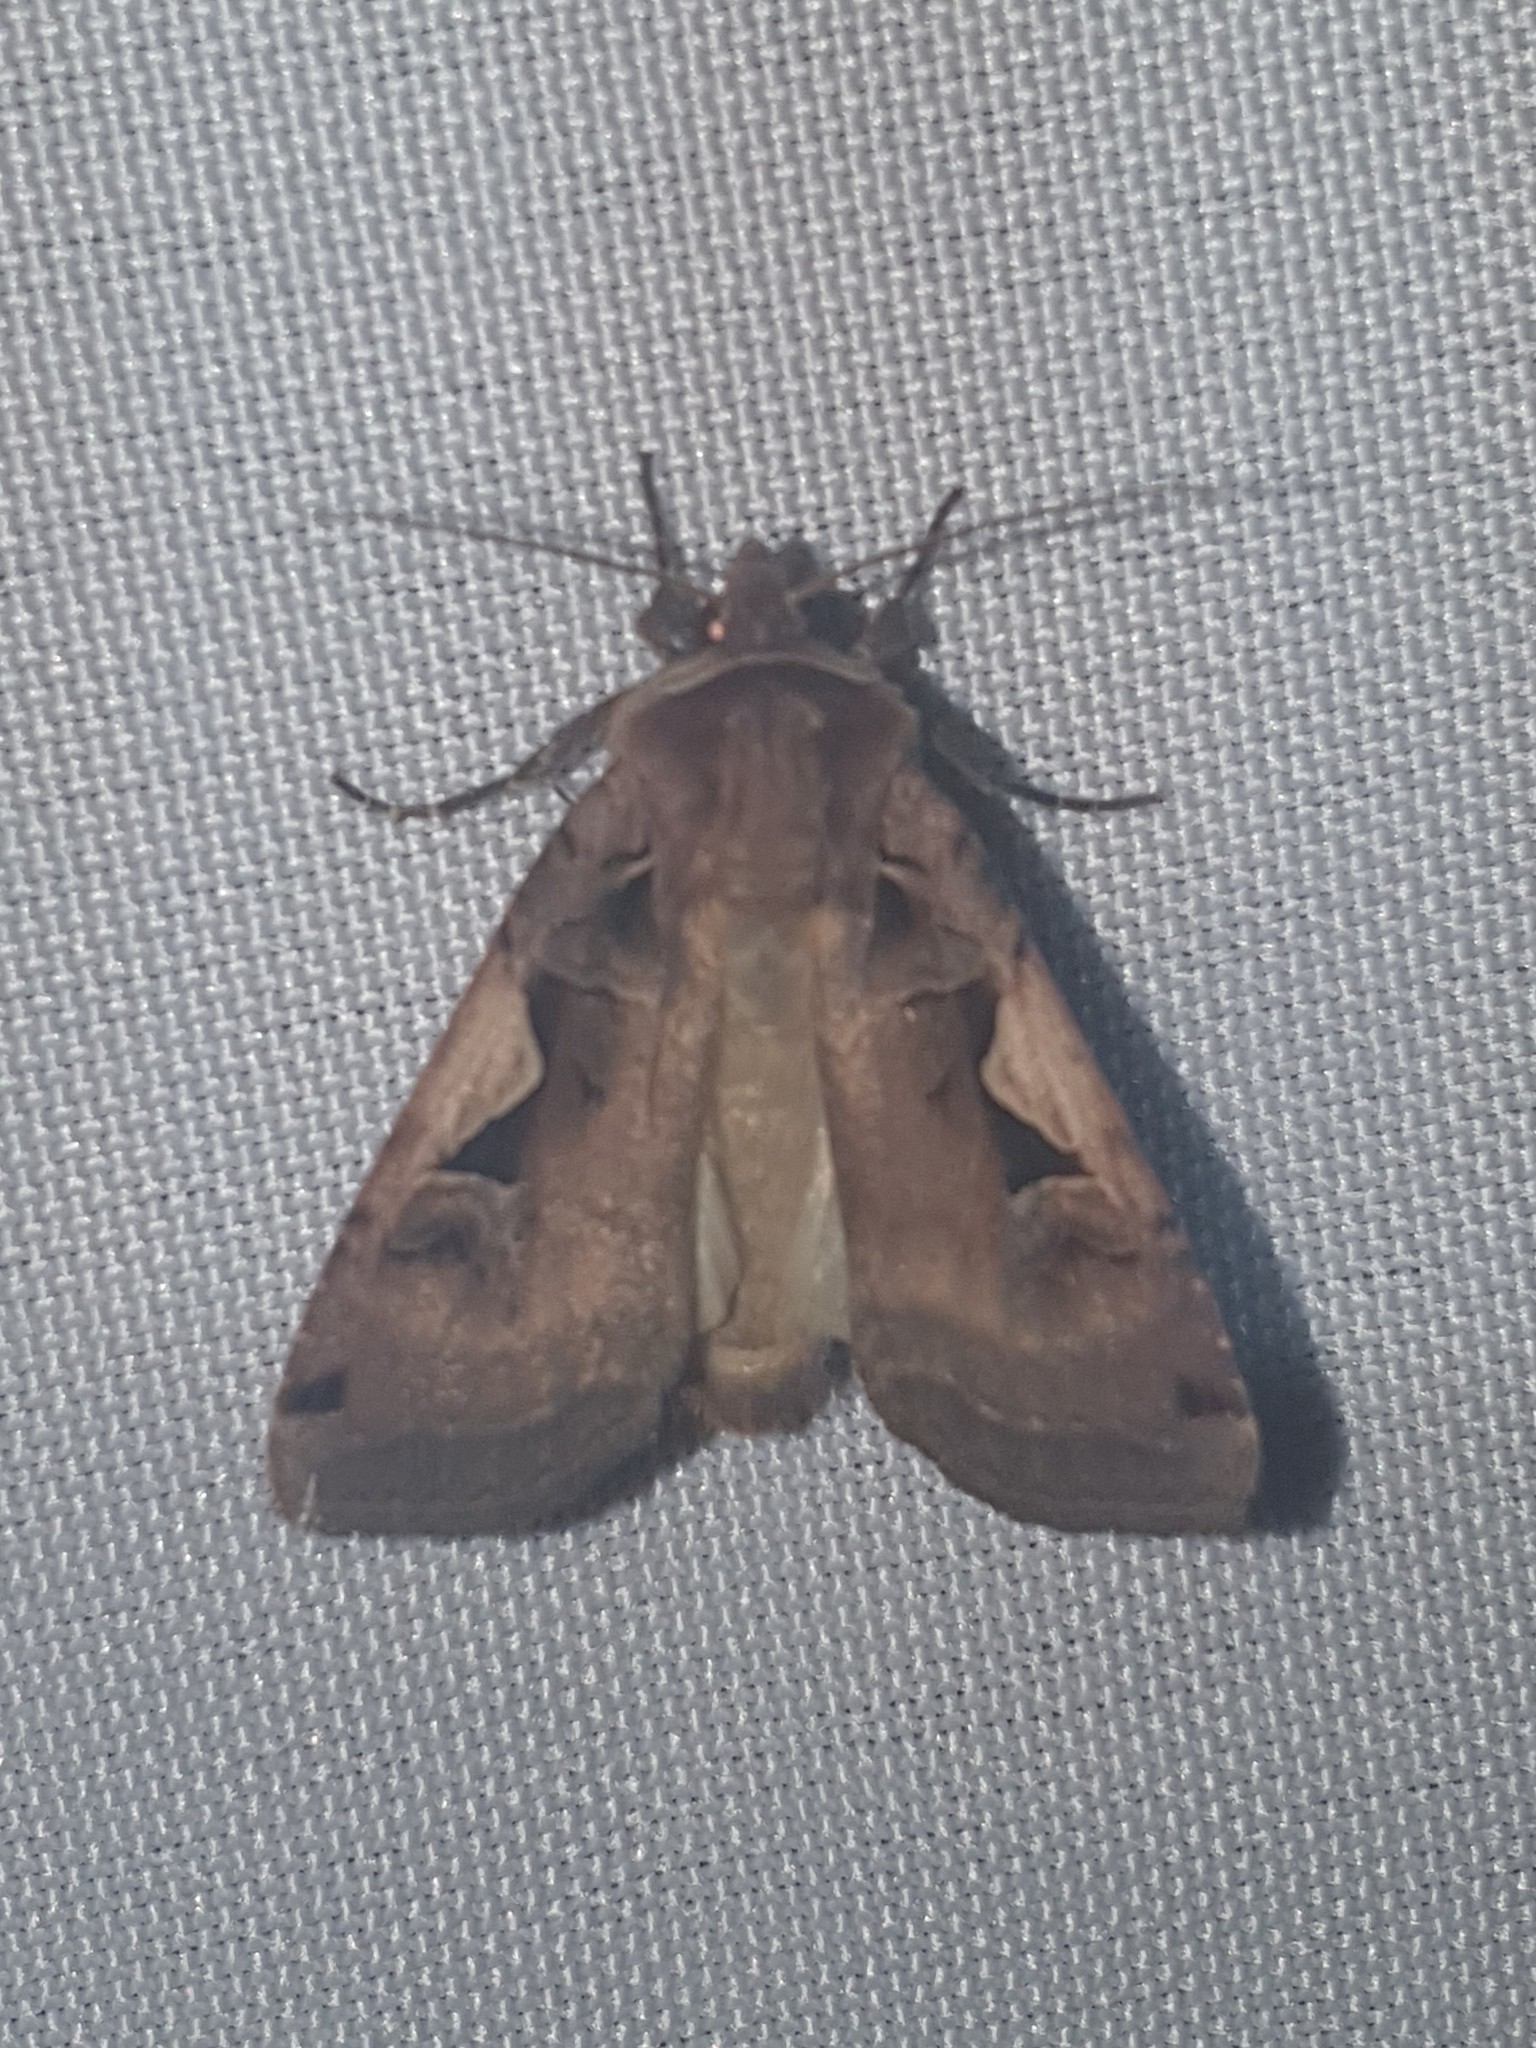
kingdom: Animalia
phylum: Arthropoda
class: Insecta
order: Lepidoptera
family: Noctuidae
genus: Xestia
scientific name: Xestia c-nigrum
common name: Setaceous hebrew character
